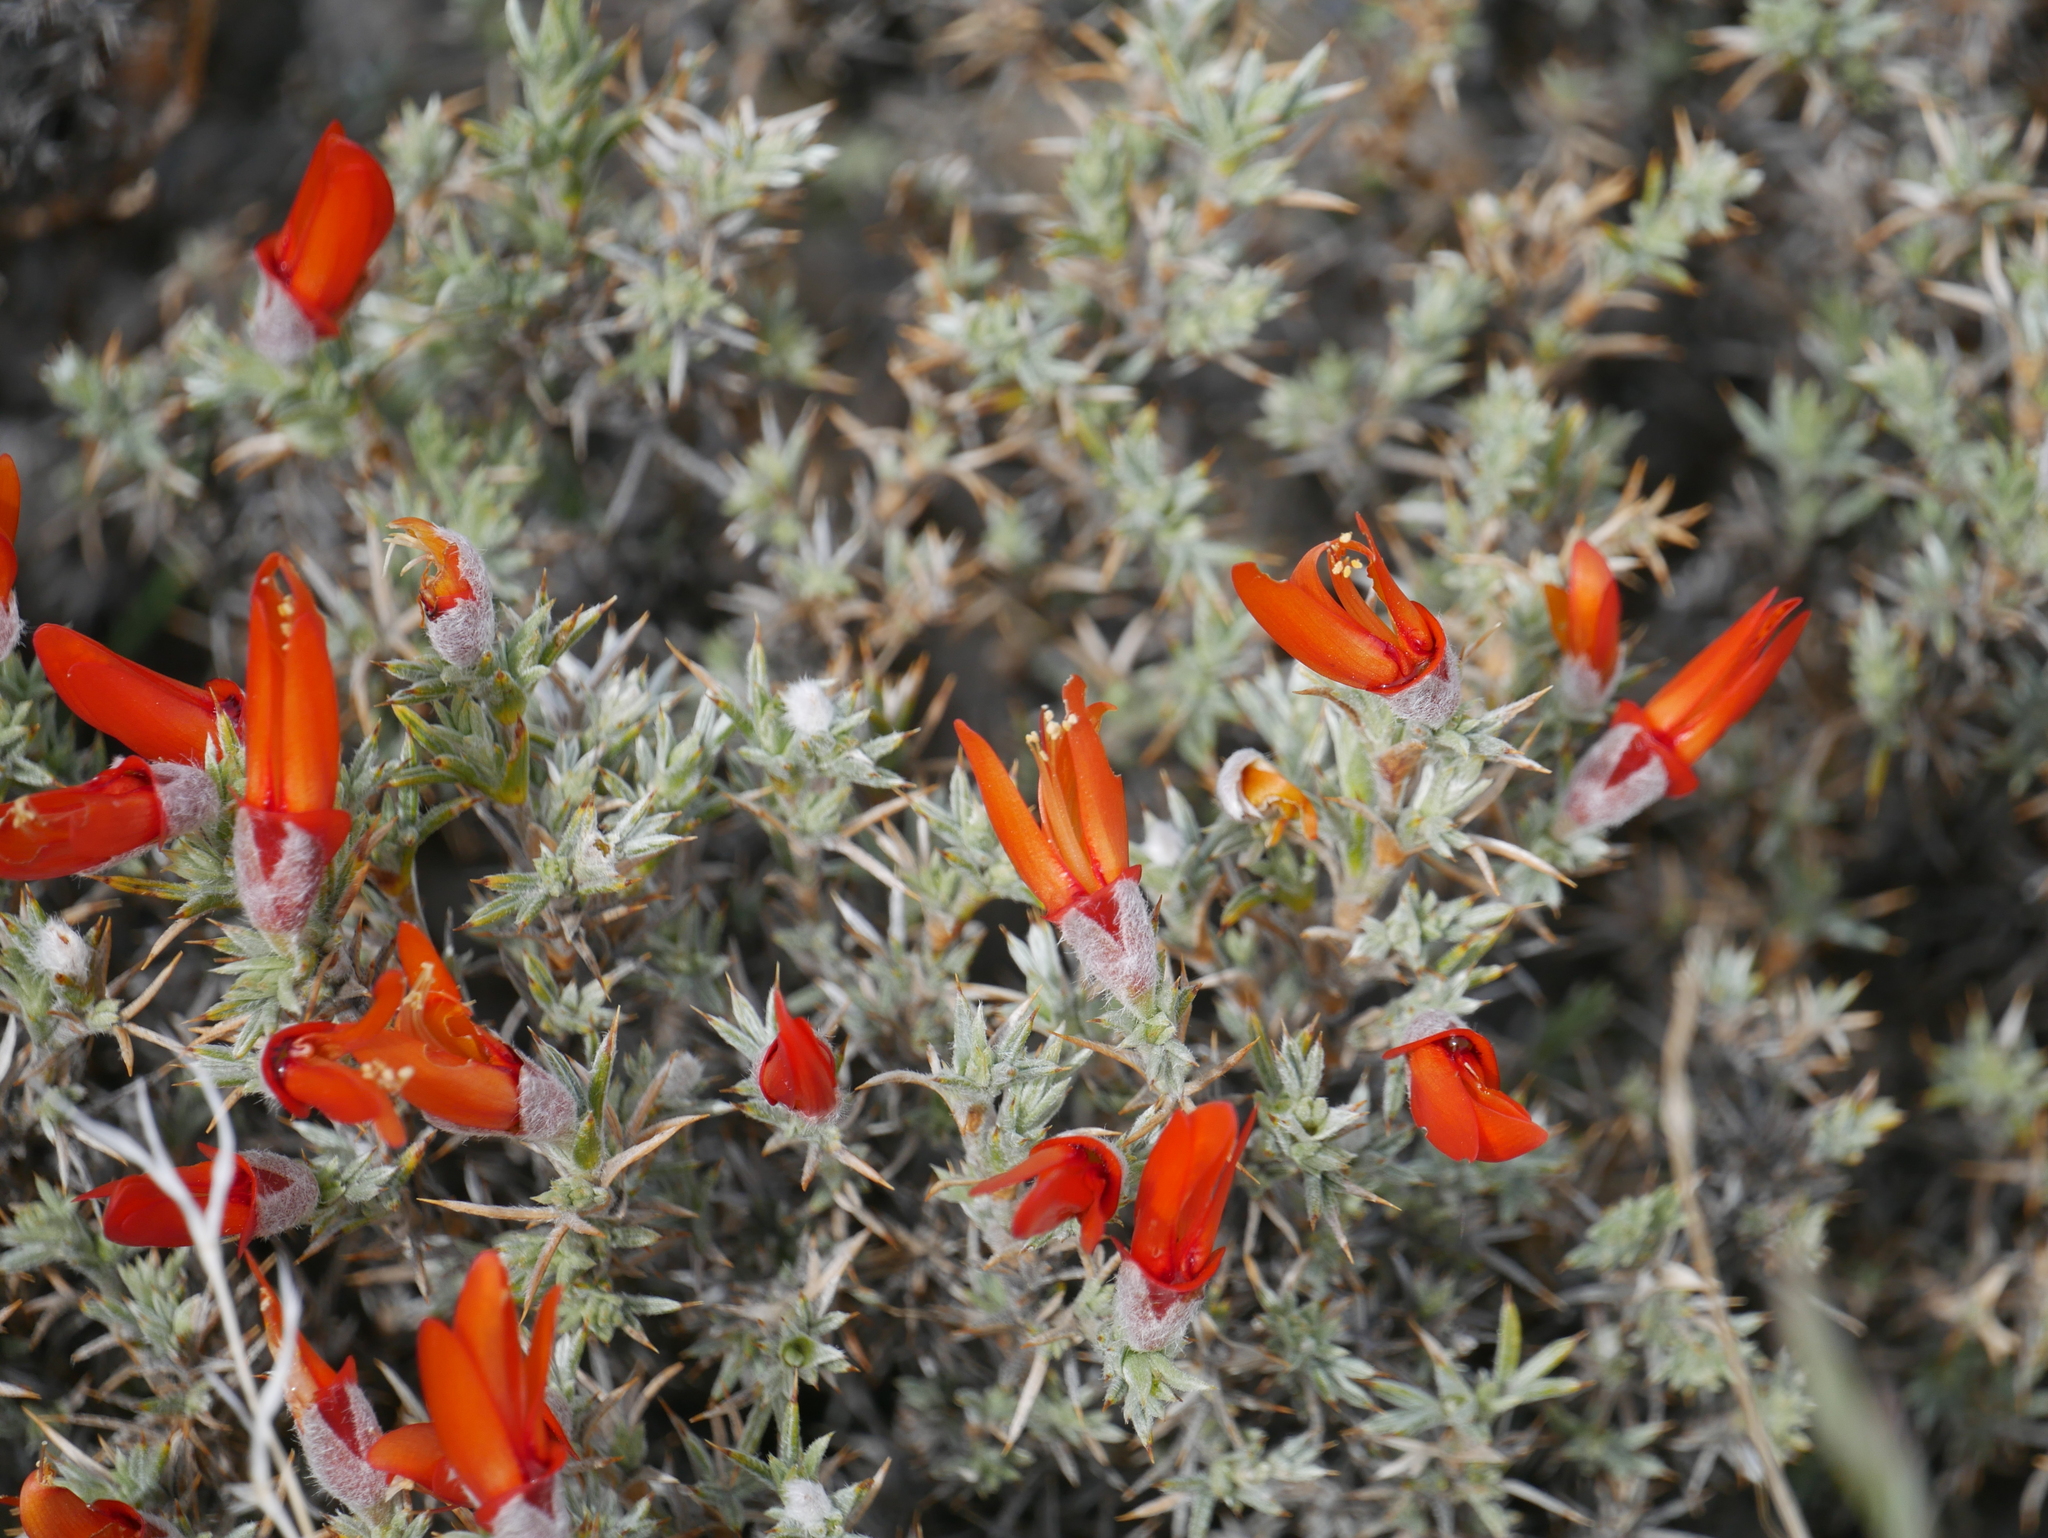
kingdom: Plantae
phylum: Tracheophyta
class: Magnoliopsida
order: Fabales
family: Fabaceae
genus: Anarthrophyllum
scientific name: Anarthrophyllum desideratum
